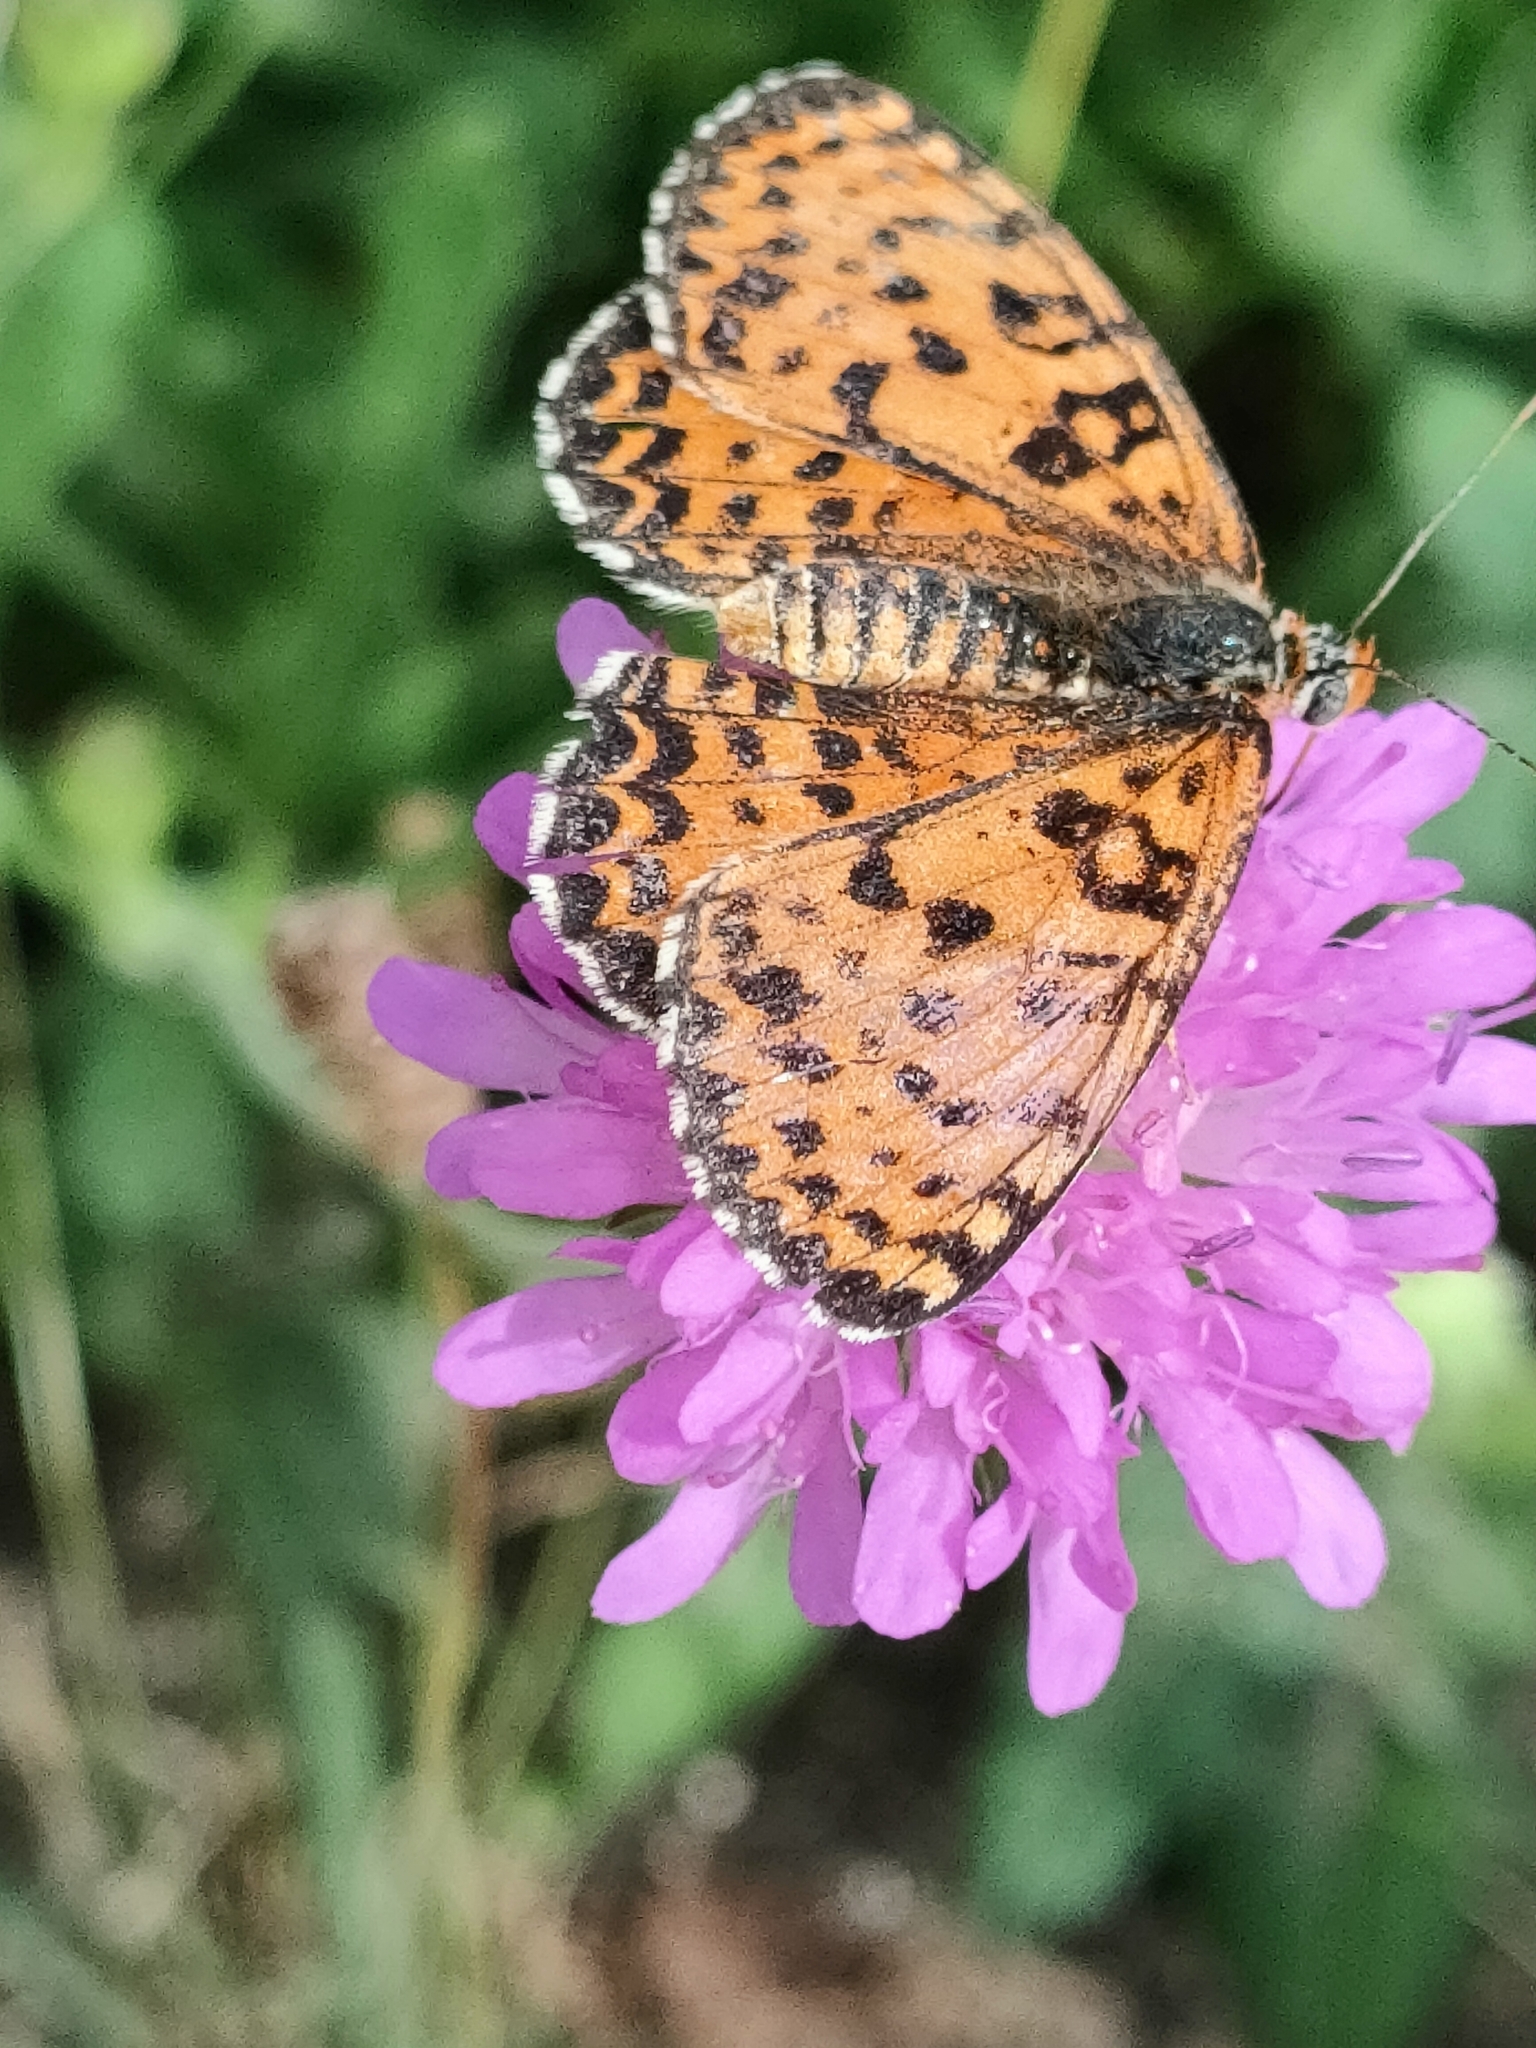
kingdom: Animalia
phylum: Arthropoda
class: Insecta
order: Lepidoptera
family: Nymphalidae
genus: Melitaea
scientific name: Melitaea didyma
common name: Spotted fritillary
